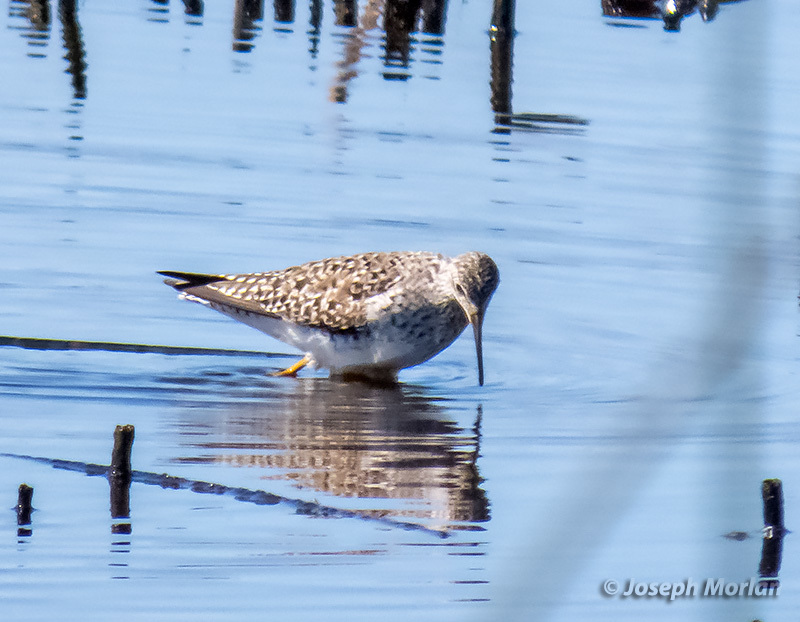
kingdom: Animalia
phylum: Chordata
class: Aves
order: Charadriiformes
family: Scolopacidae
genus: Tringa
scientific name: Tringa flavipes
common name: Lesser yellowlegs
